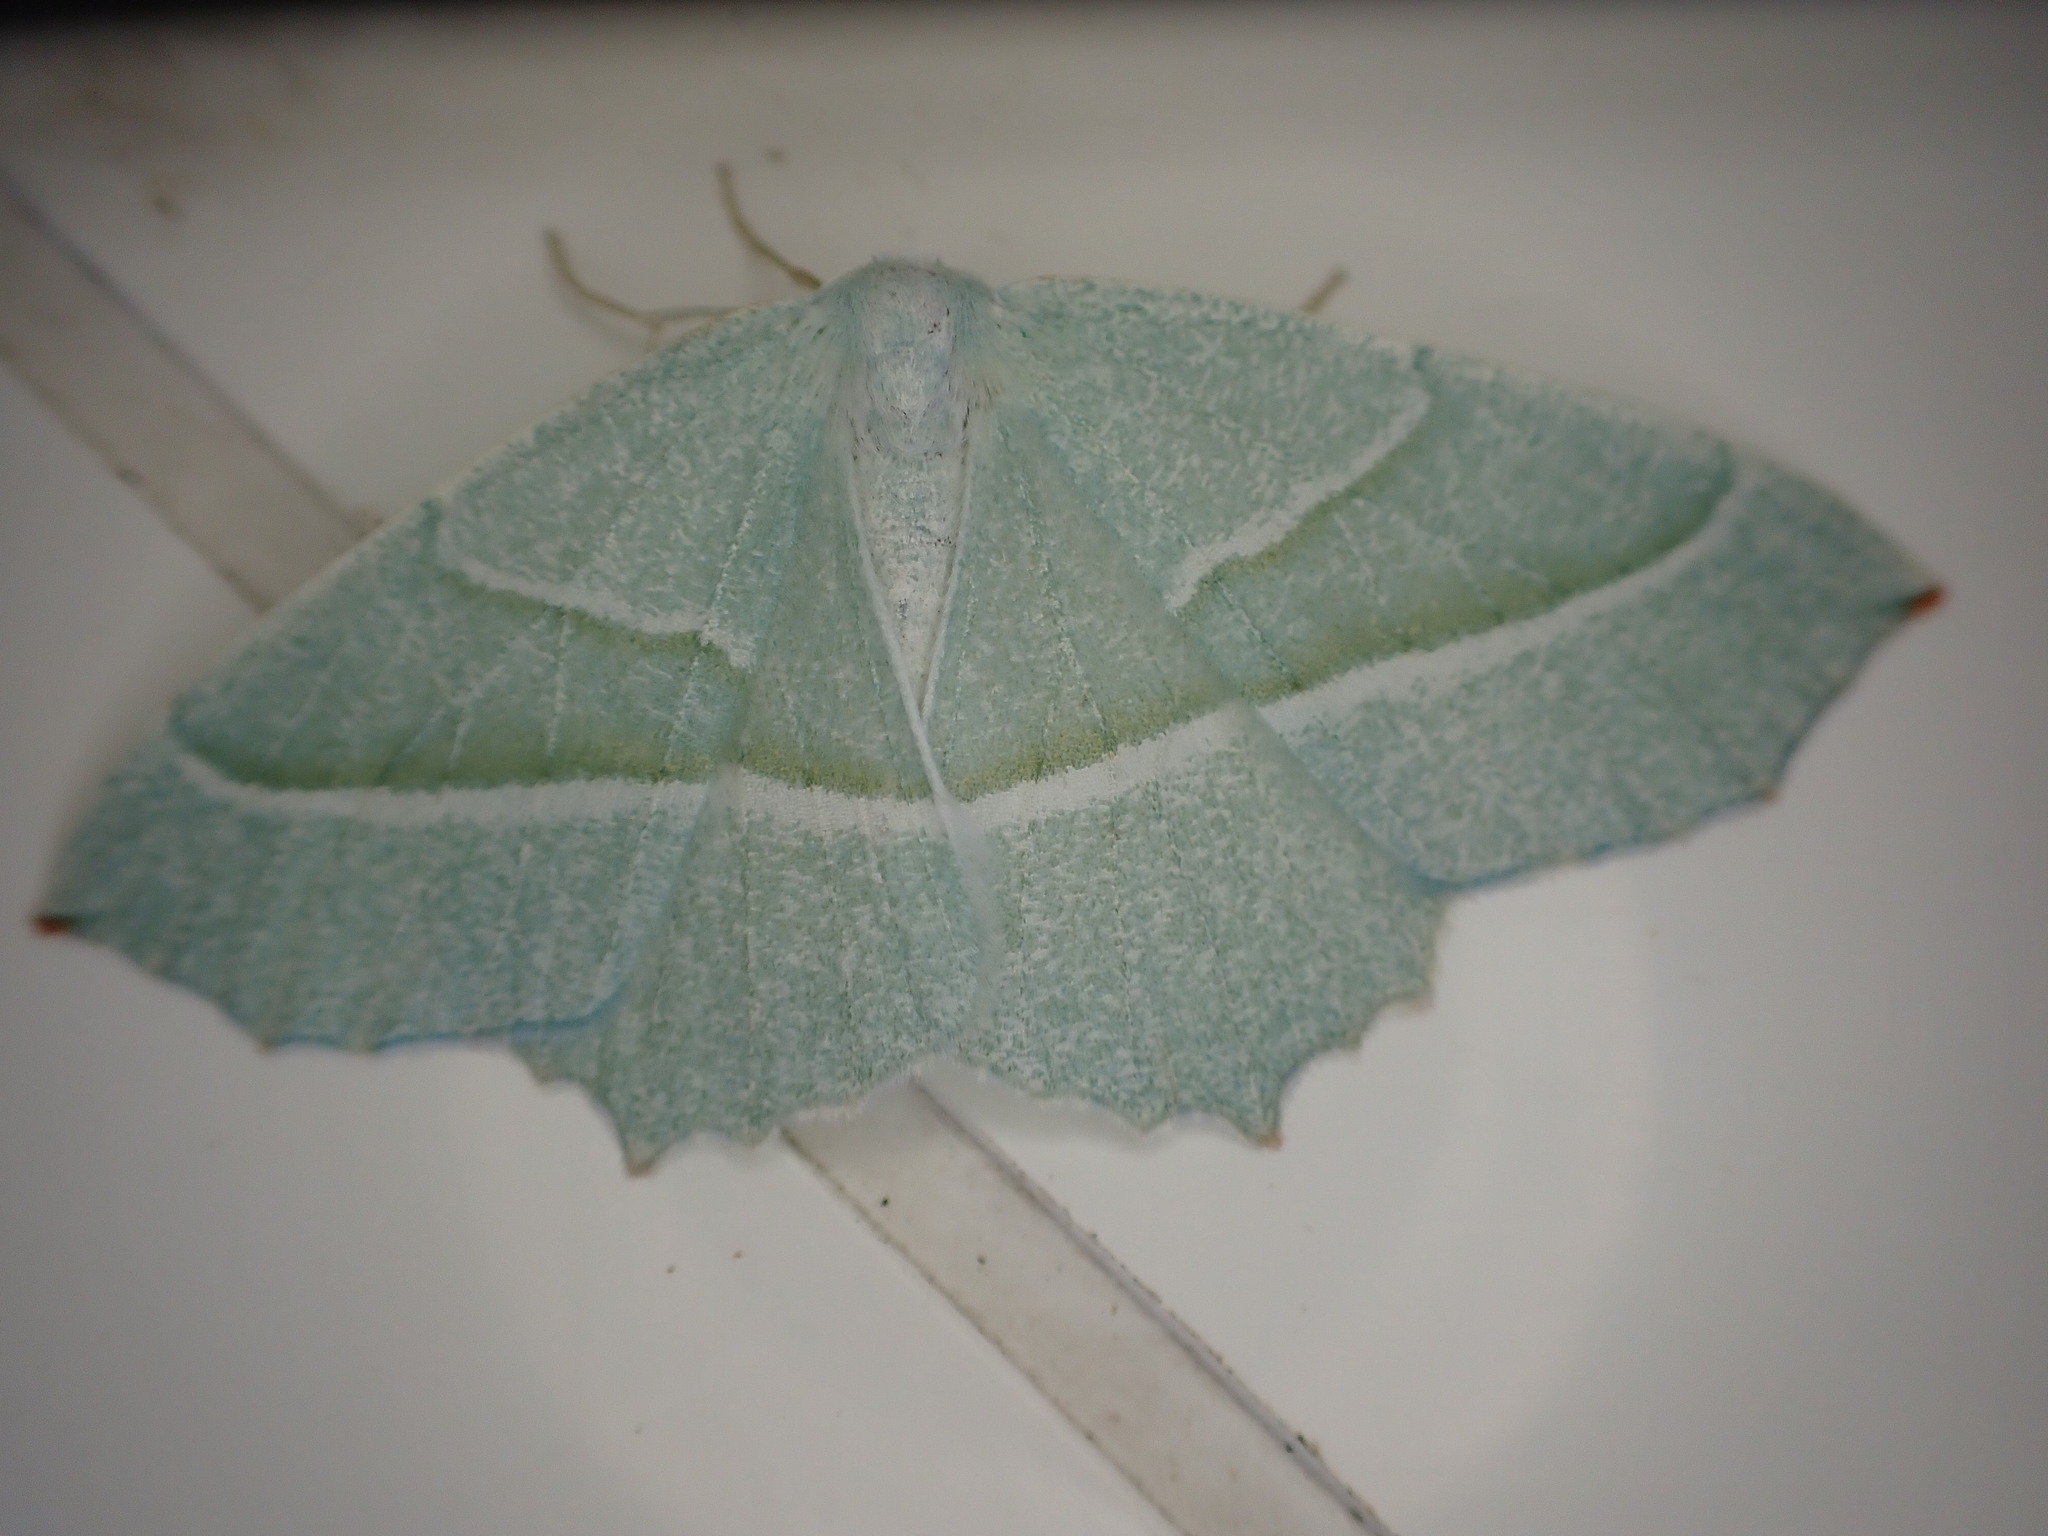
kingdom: Animalia
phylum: Arthropoda
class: Insecta
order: Lepidoptera
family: Geometridae
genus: Campaea
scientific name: Campaea margaritaria
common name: Light emerald
